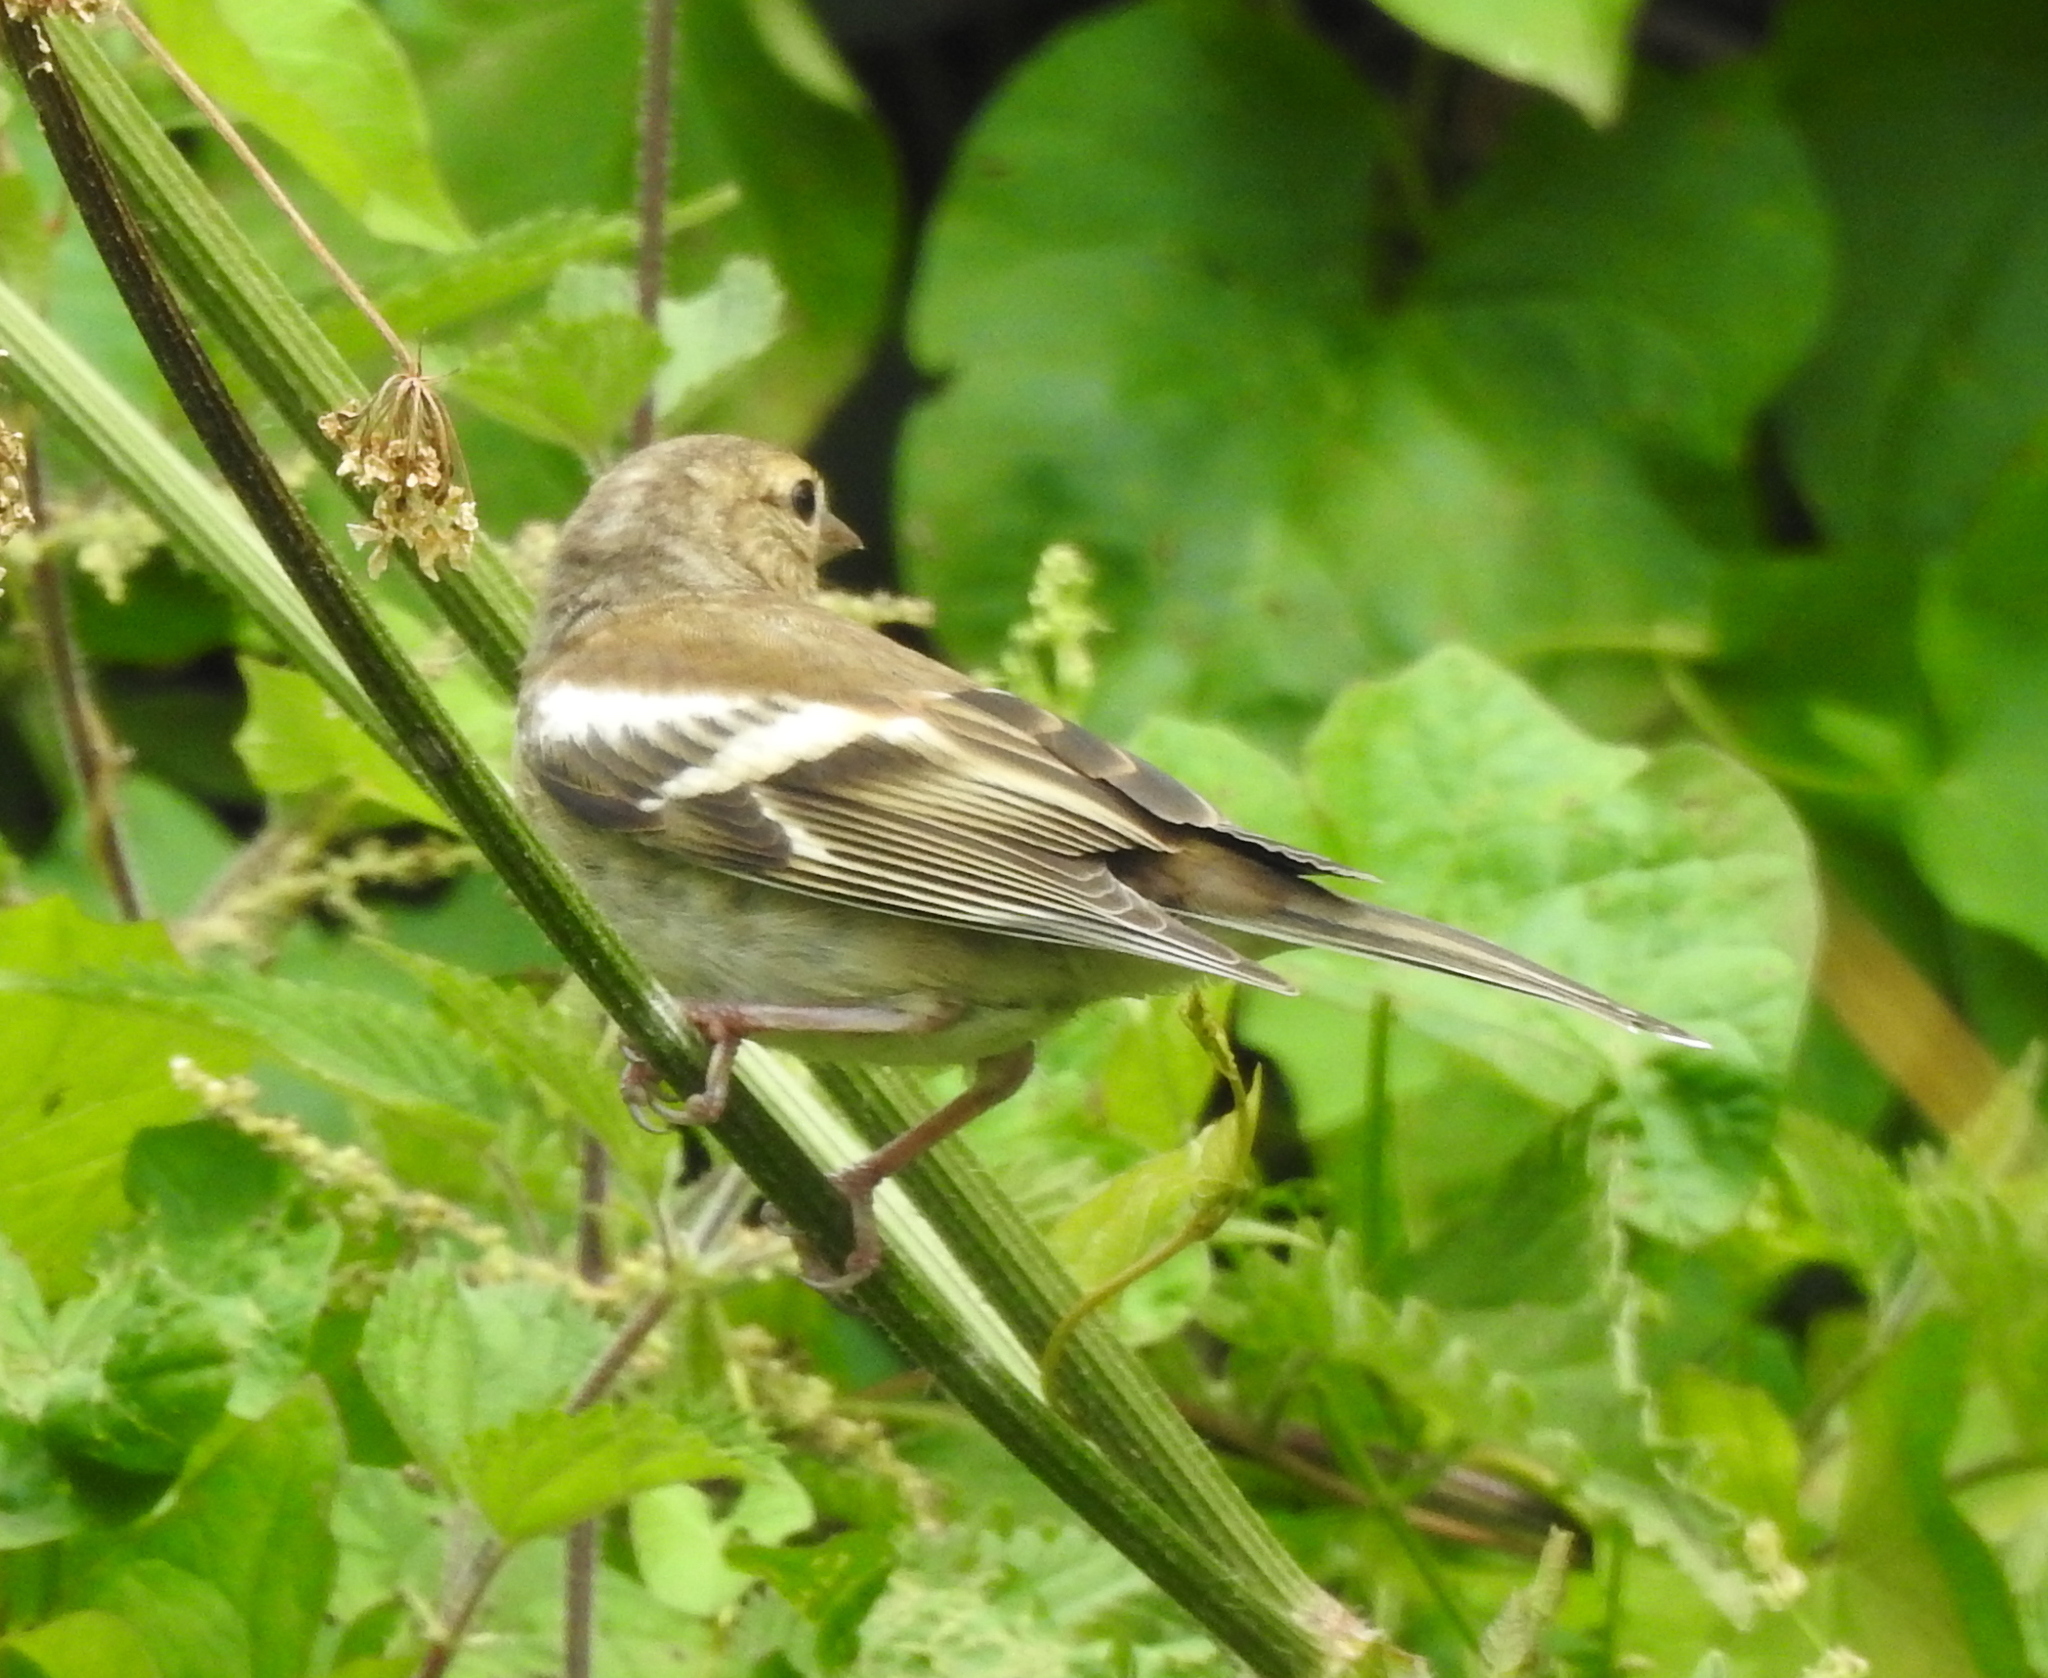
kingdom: Animalia
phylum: Chordata
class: Aves
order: Passeriformes
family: Fringillidae
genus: Fringilla
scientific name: Fringilla coelebs
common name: Common chaffinch
